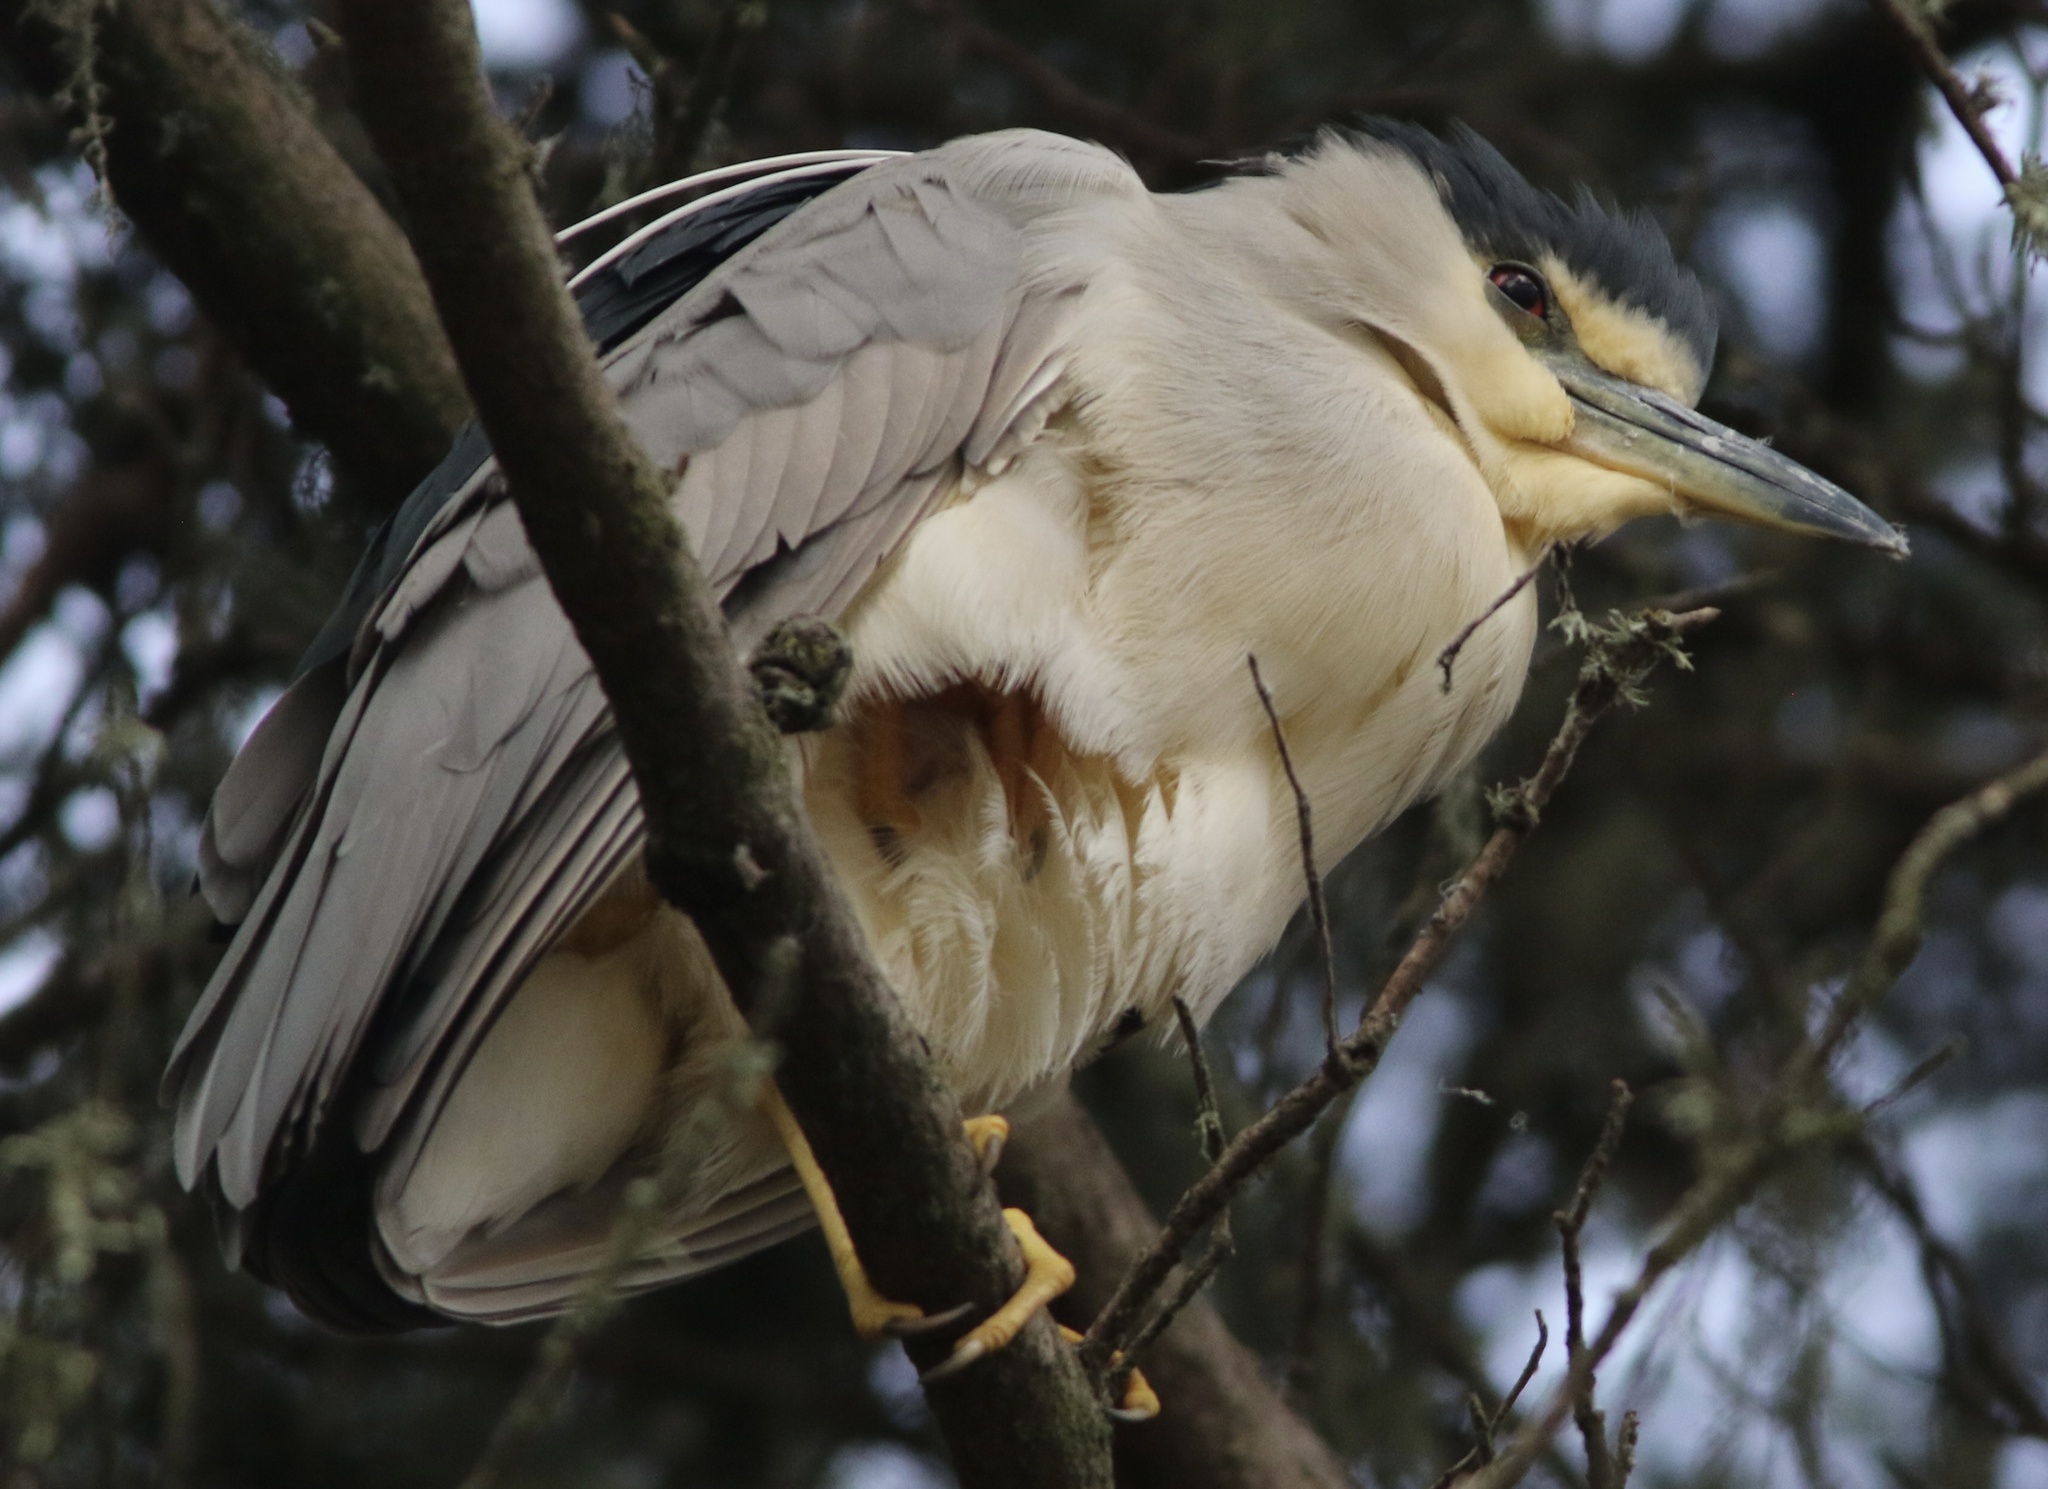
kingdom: Animalia
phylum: Chordata
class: Aves
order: Pelecaniformes
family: Ardeidae
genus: Nycticorax
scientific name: Nycticorax nycticorax
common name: Black-crowned night heron
